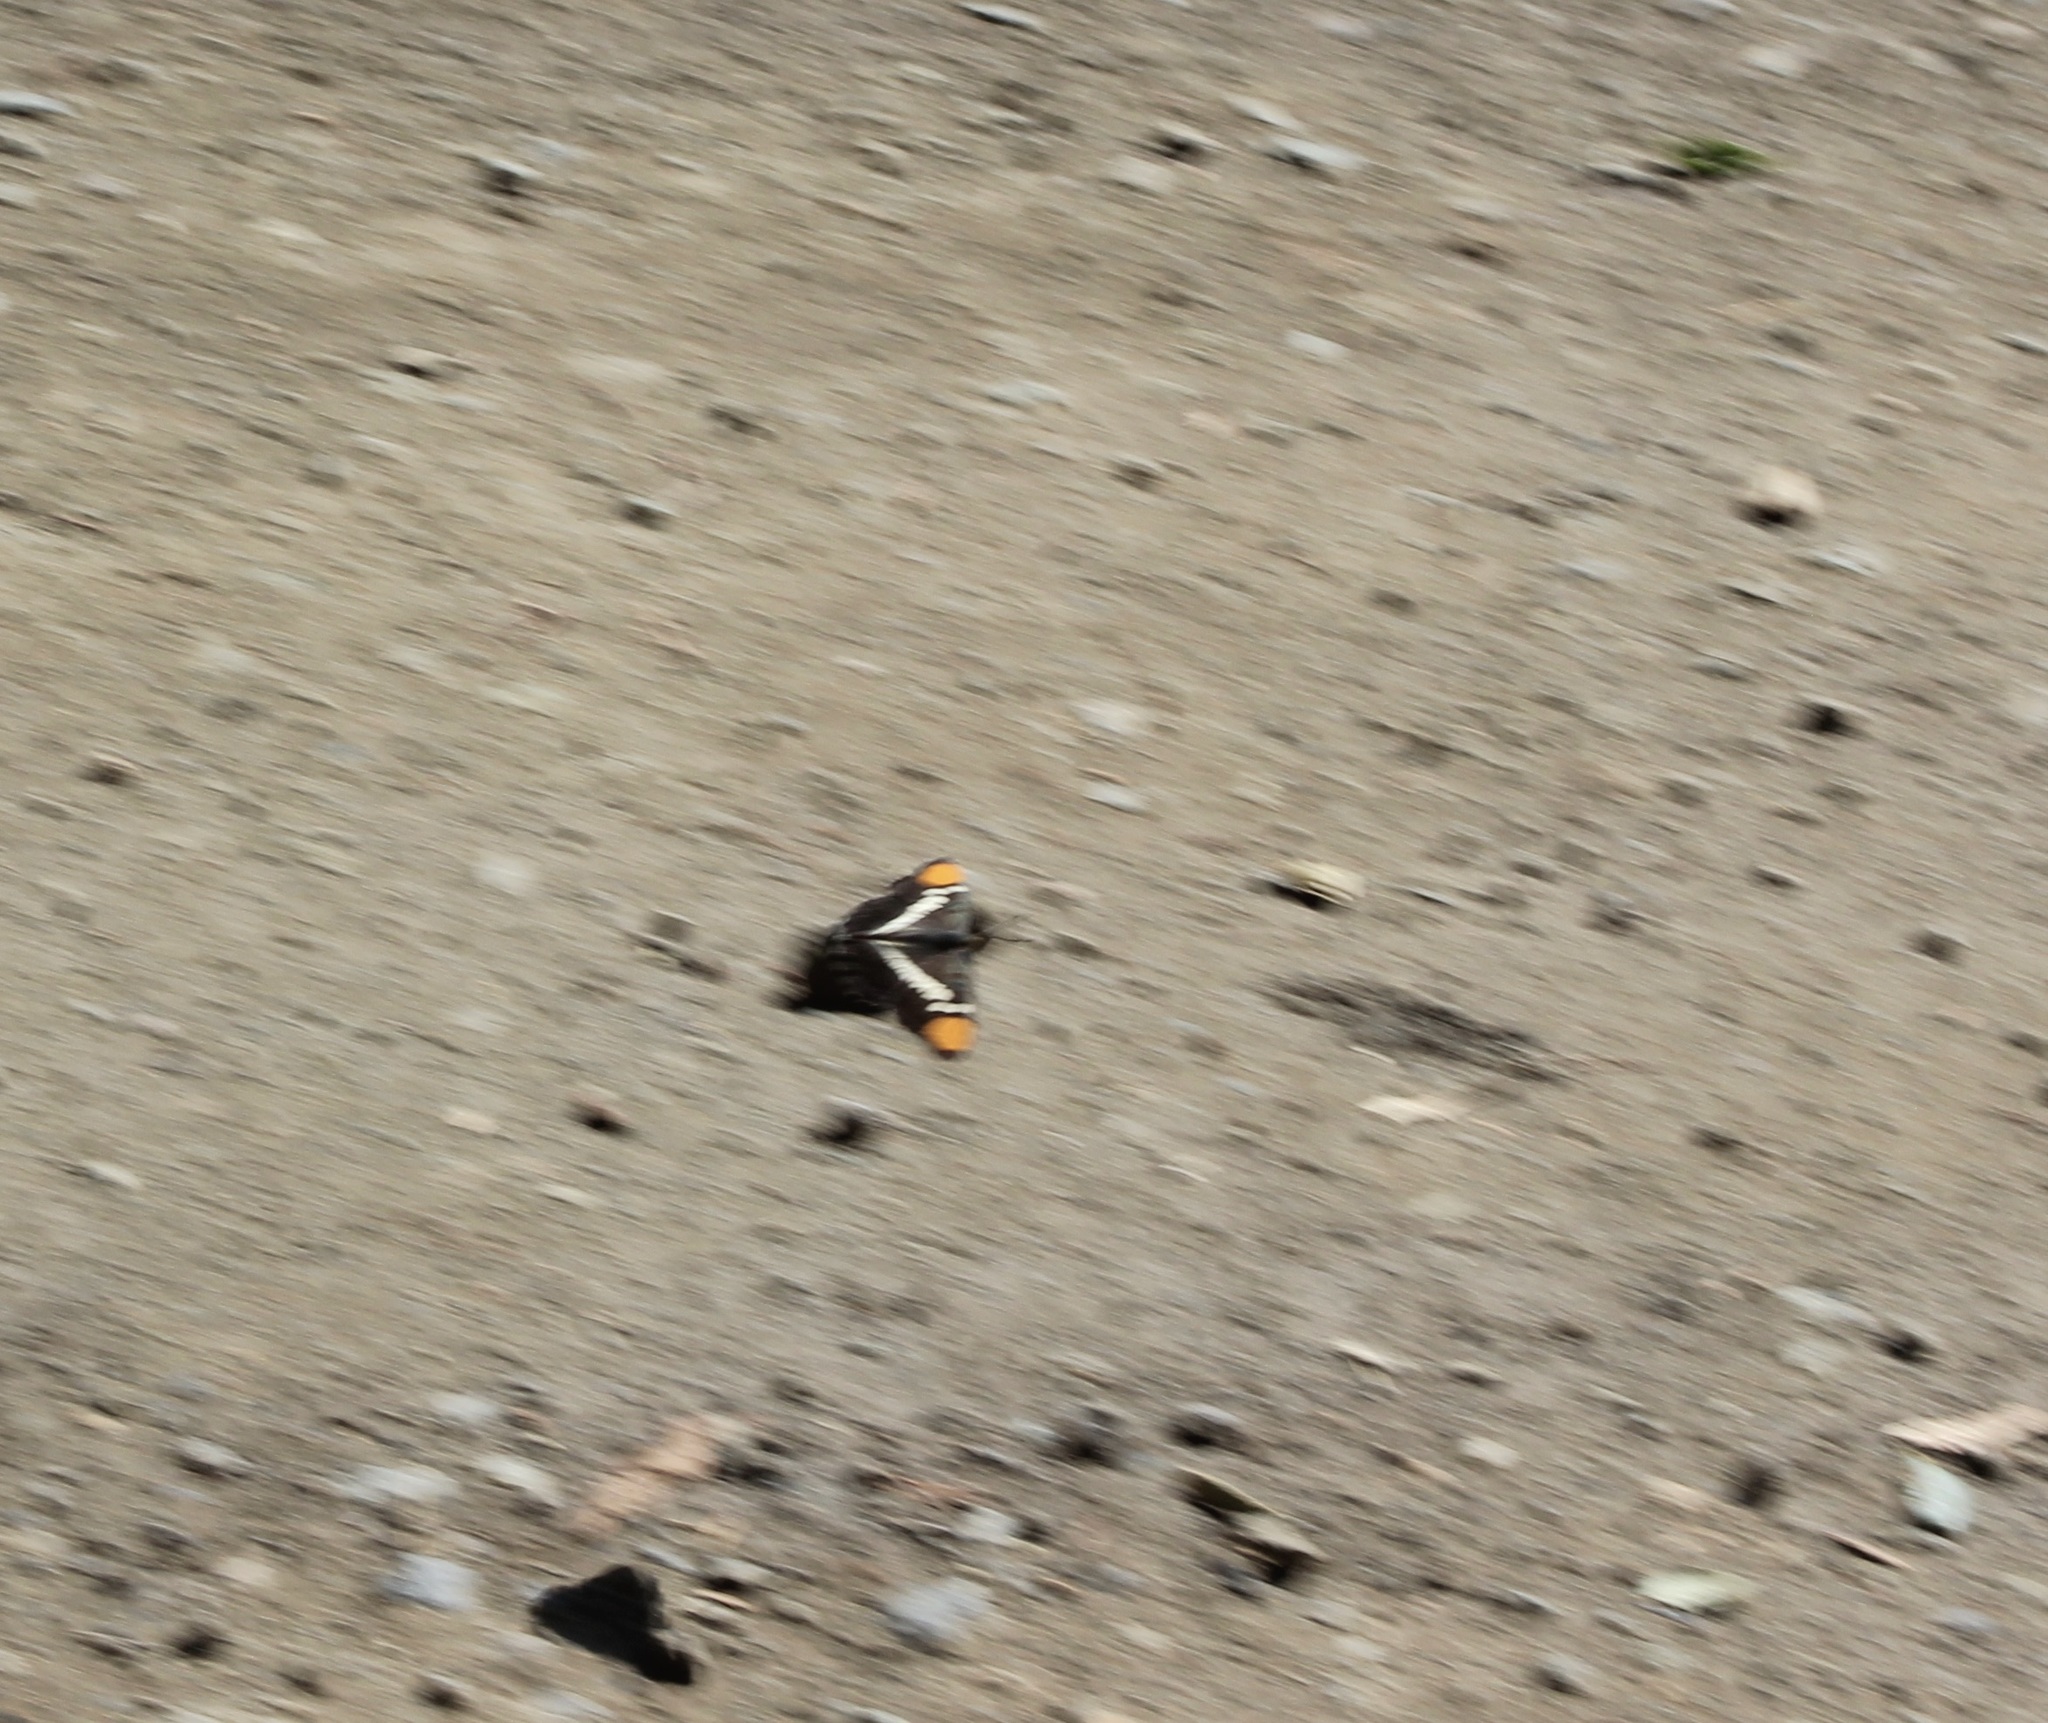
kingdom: Animalia
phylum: Arthropoda
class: Insecta
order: Lepidoptera
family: Nymphalidae
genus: Limenitis
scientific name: Limenitis bredowii
